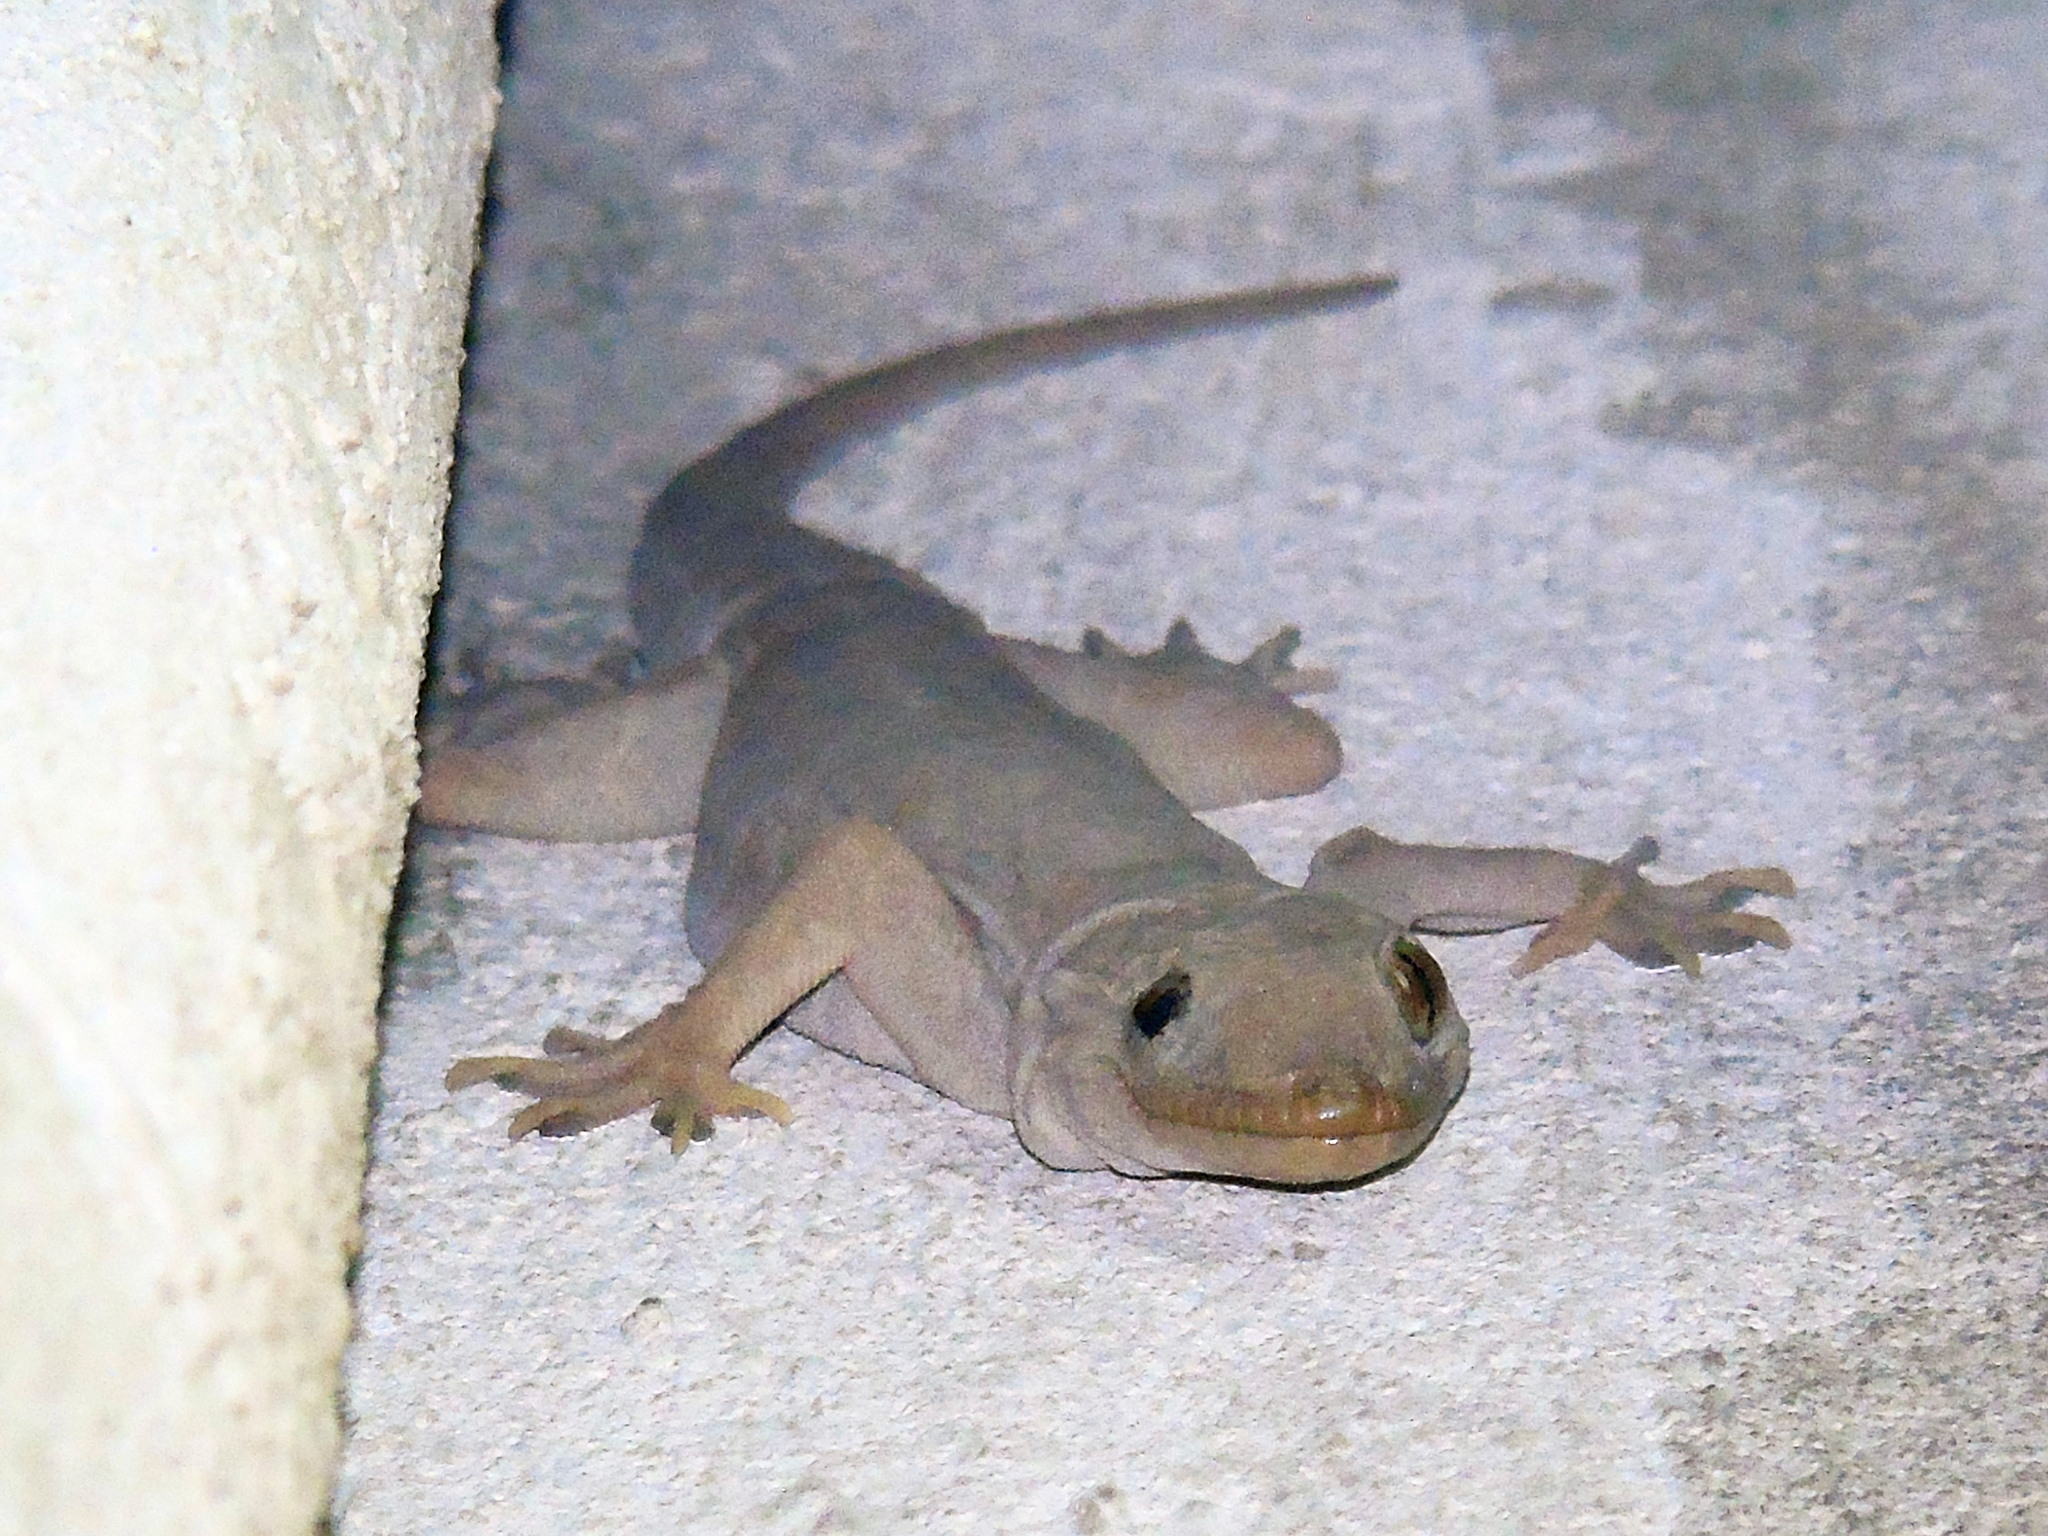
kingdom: Animalia
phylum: Chordata
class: Squamata
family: Gekkonidae
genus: Hemidactylus
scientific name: Hemidactylus flaviviridis
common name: Northern house gecko
